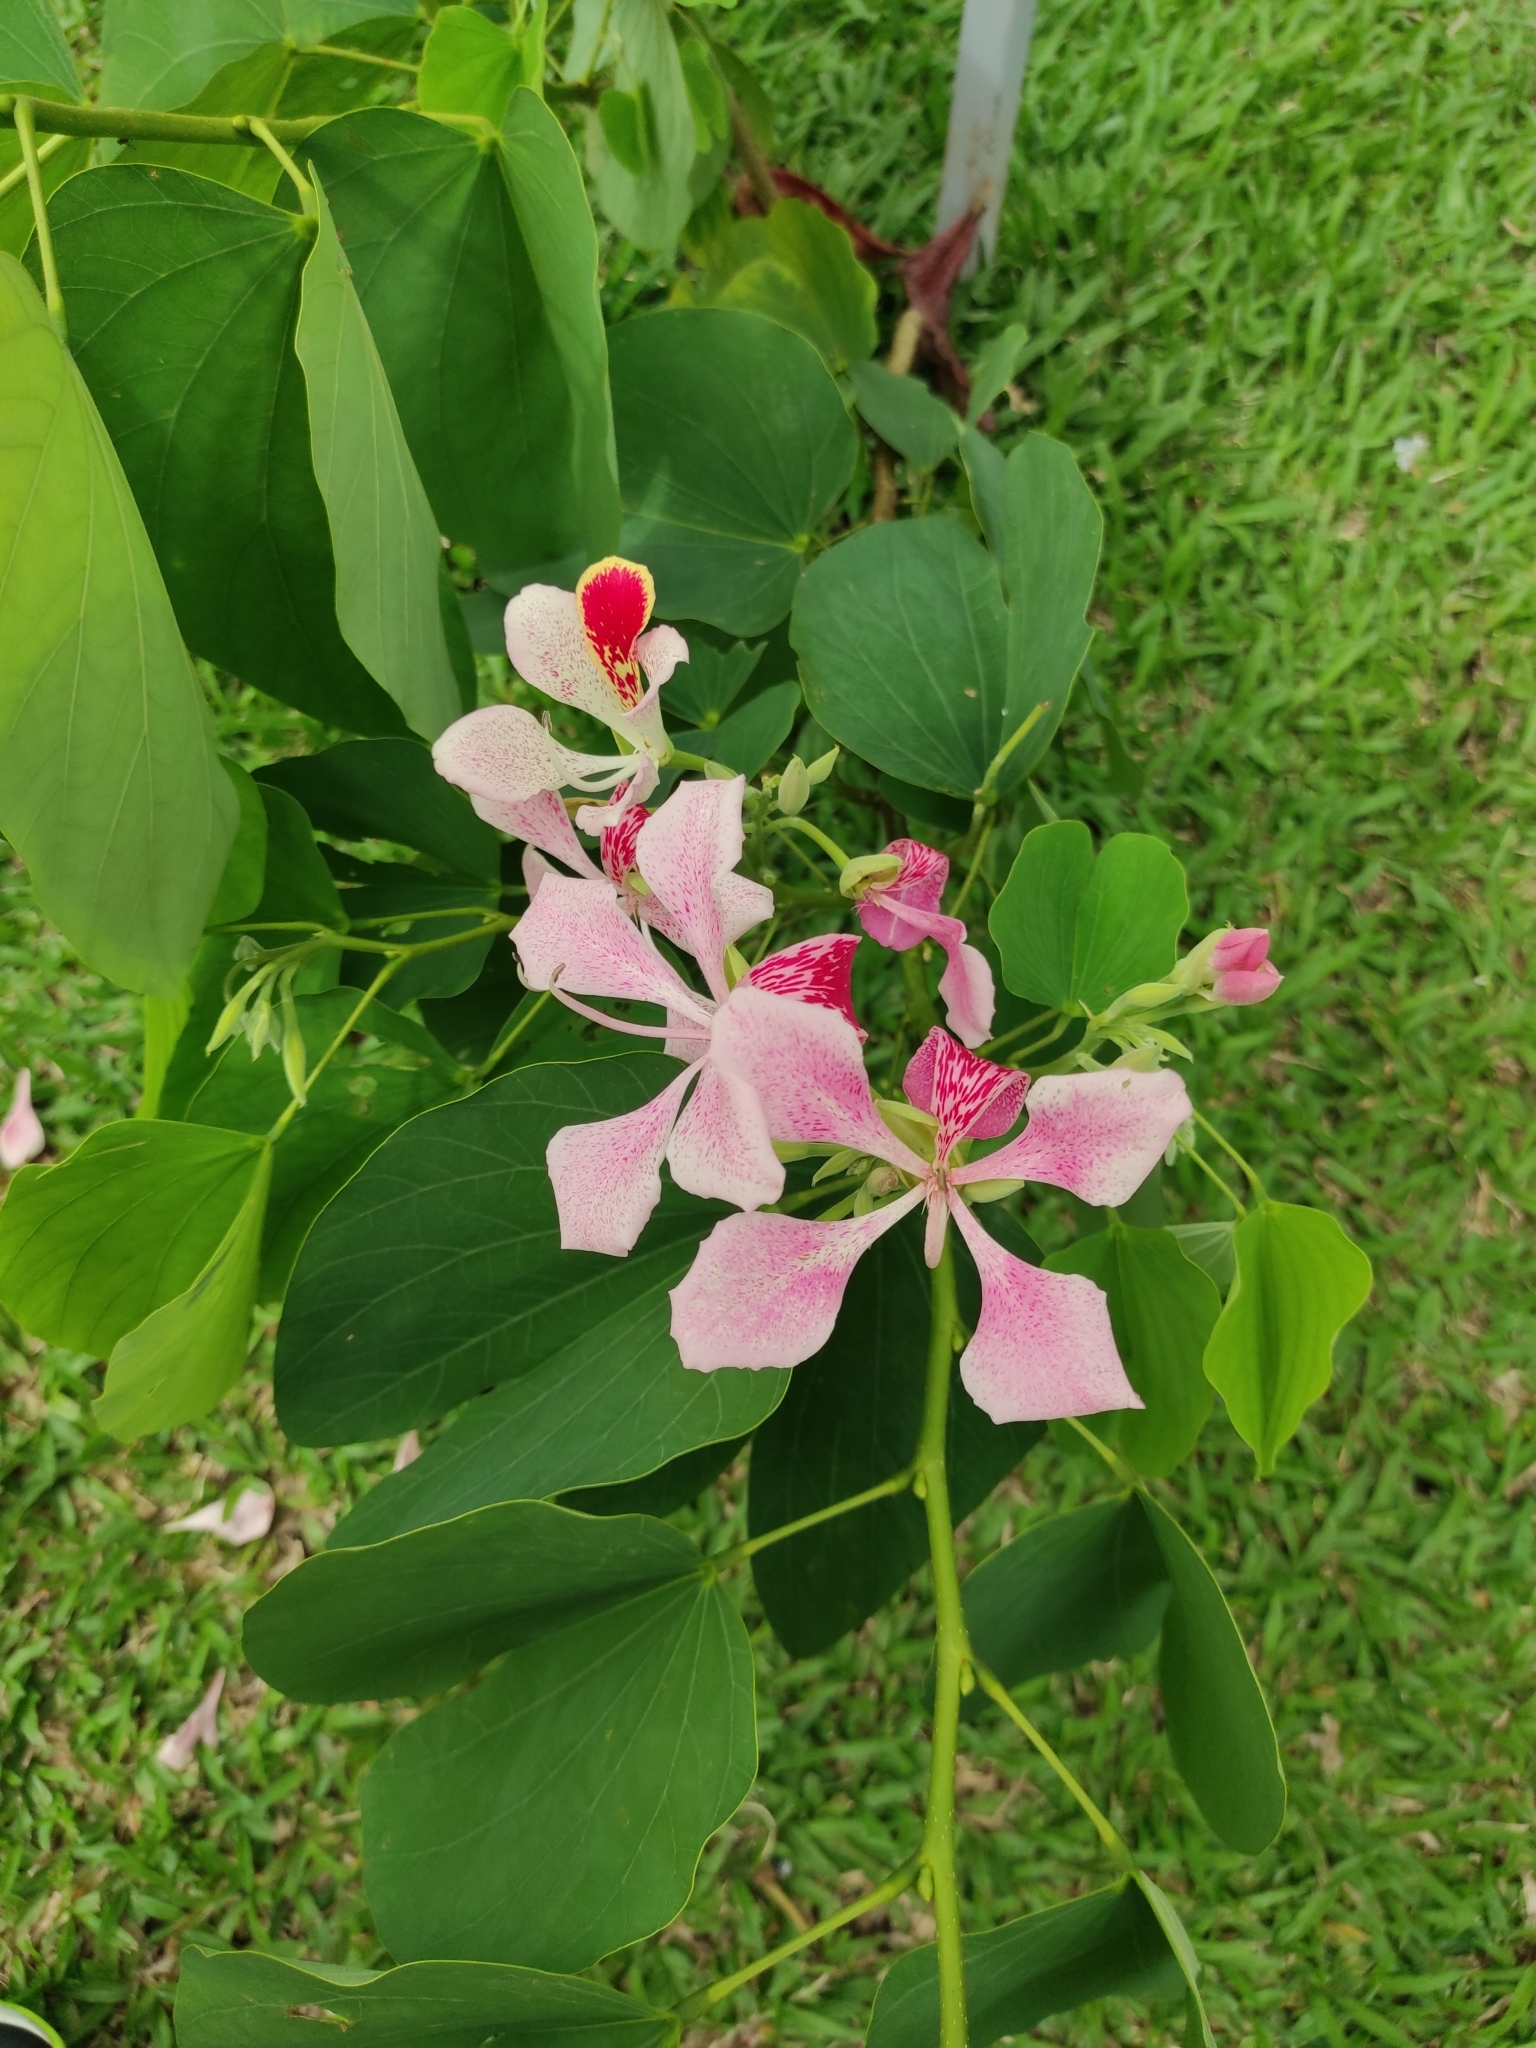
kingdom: Plantae
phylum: Tracheophyta
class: Magnoliopsida
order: Fabales
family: Fabaceae
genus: Bauhinia
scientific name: Bauhinia monandra
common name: Napoleon's plume
